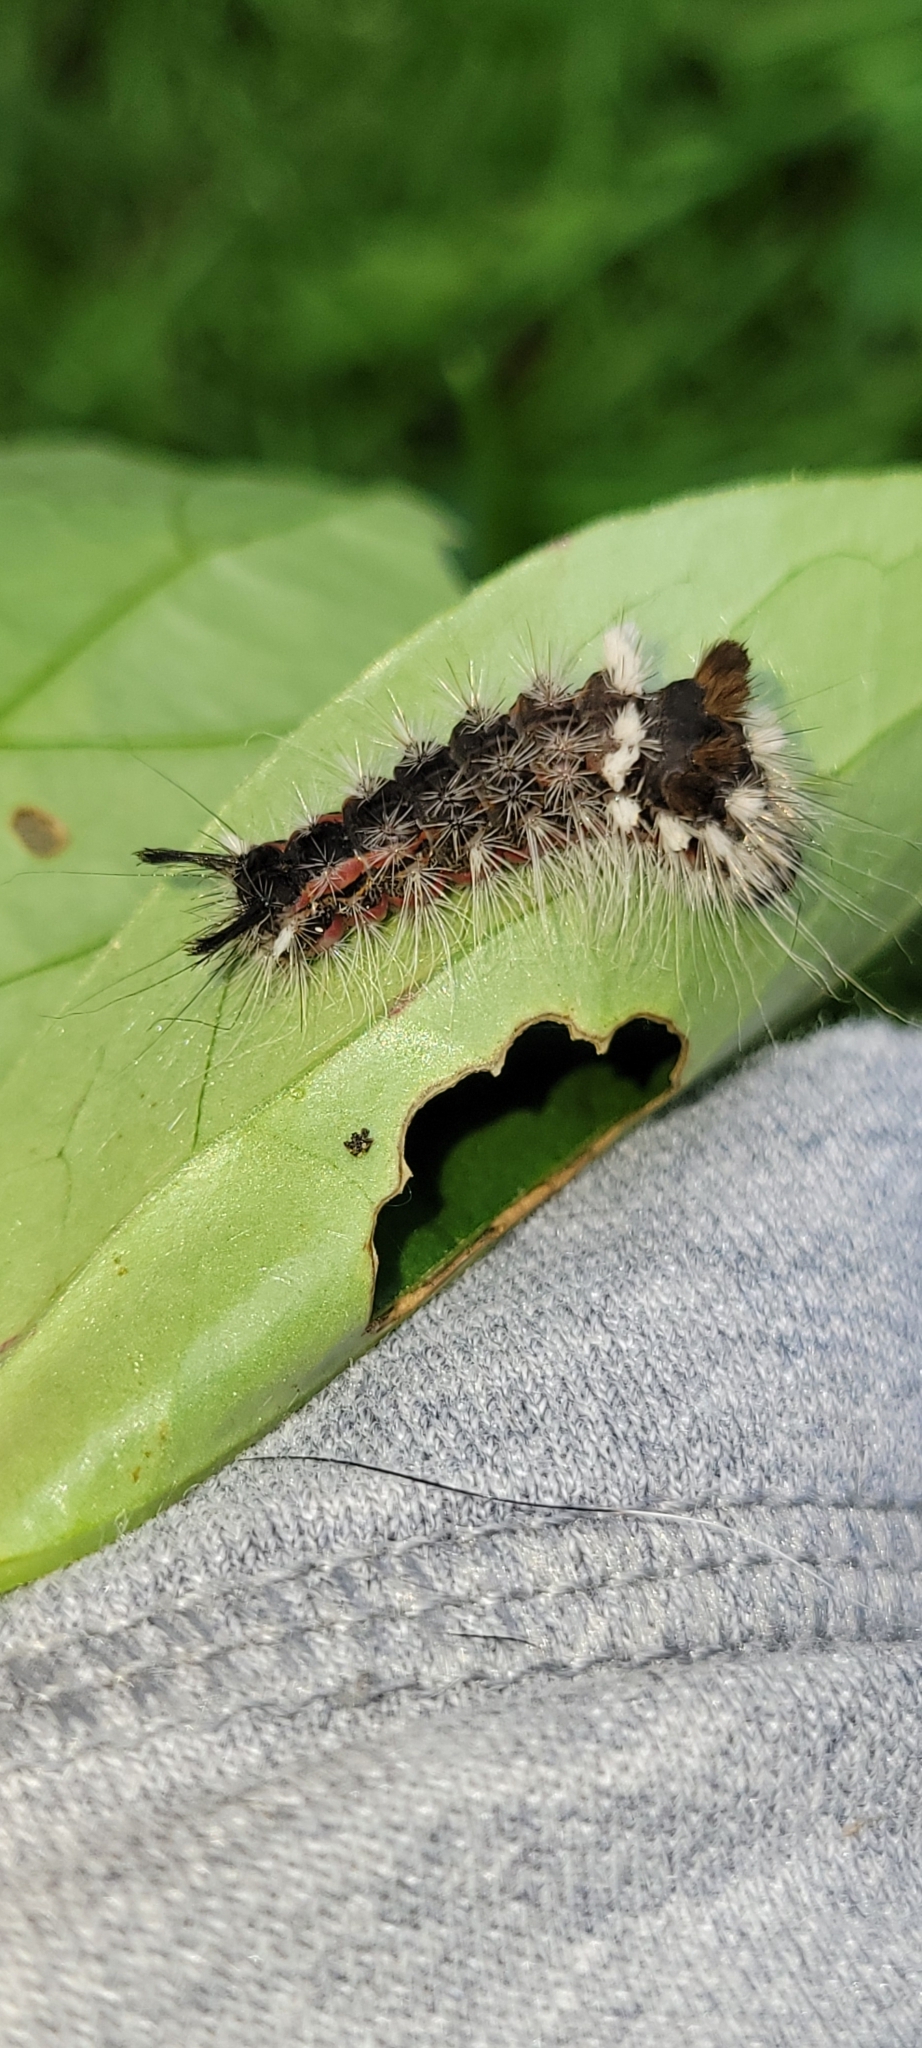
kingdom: Animalia
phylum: Arthropoda
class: Insecta
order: Lepidoptera
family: Noctuidae
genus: Acronicta
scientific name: Acronicta impleta
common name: Powdered dagger
